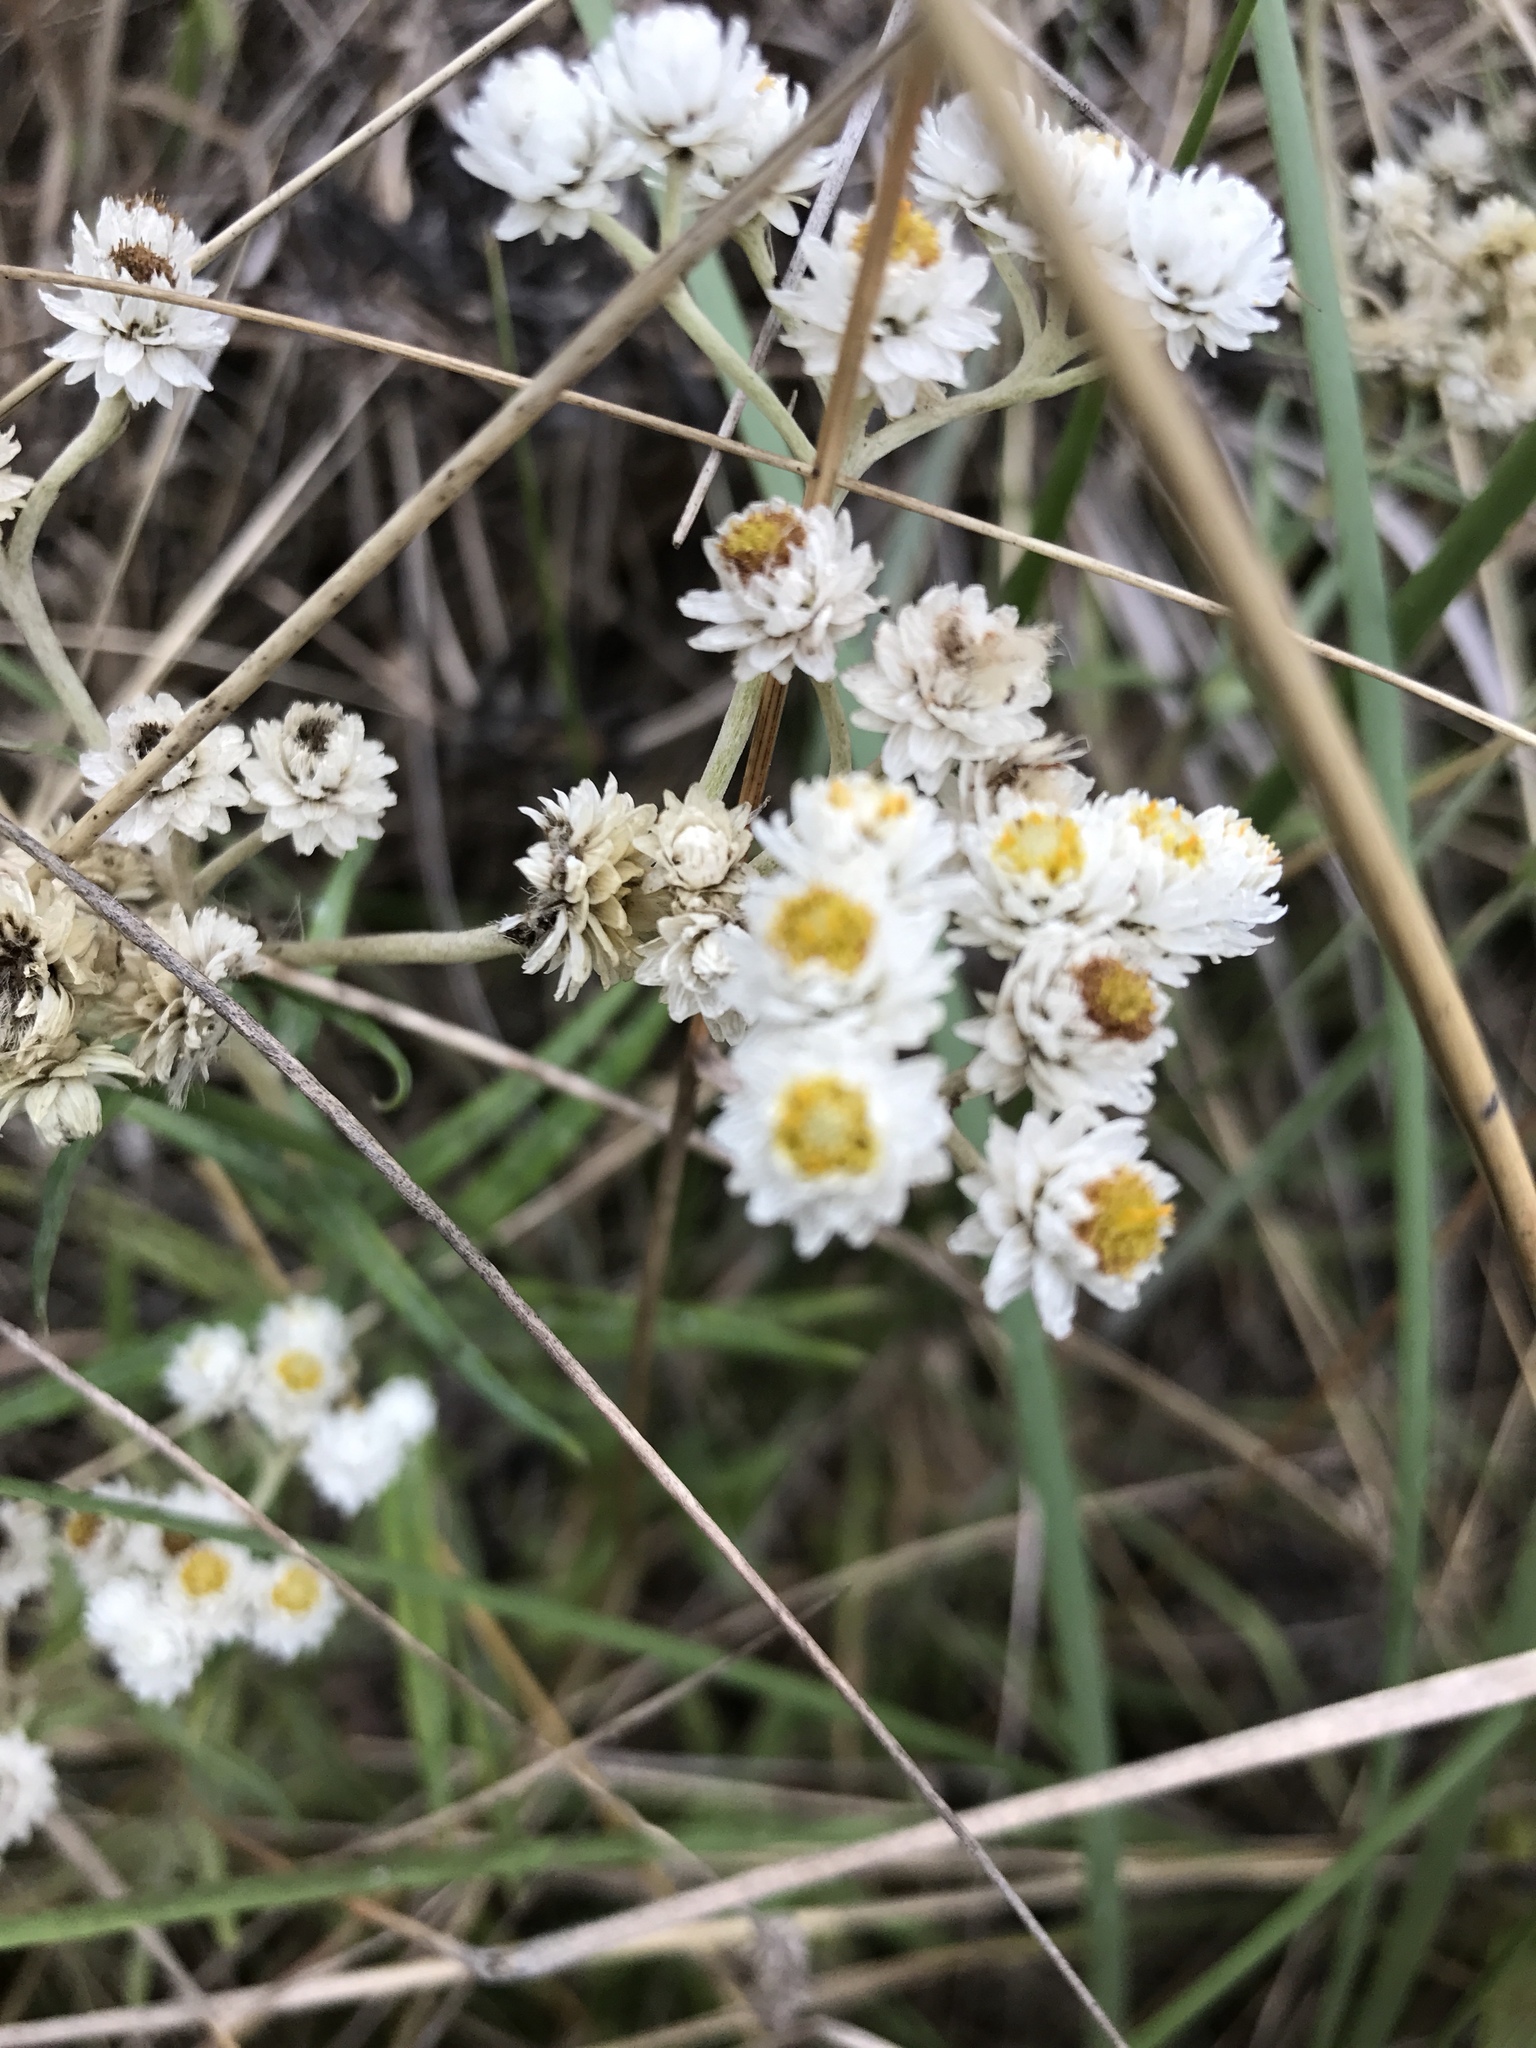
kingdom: Plantae
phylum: Tracheophyta
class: Magnoliopsida
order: Asterales
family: Asteraceae
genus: Anaphalis
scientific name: Anaphalis margaritacea
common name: Pearly everlasting
